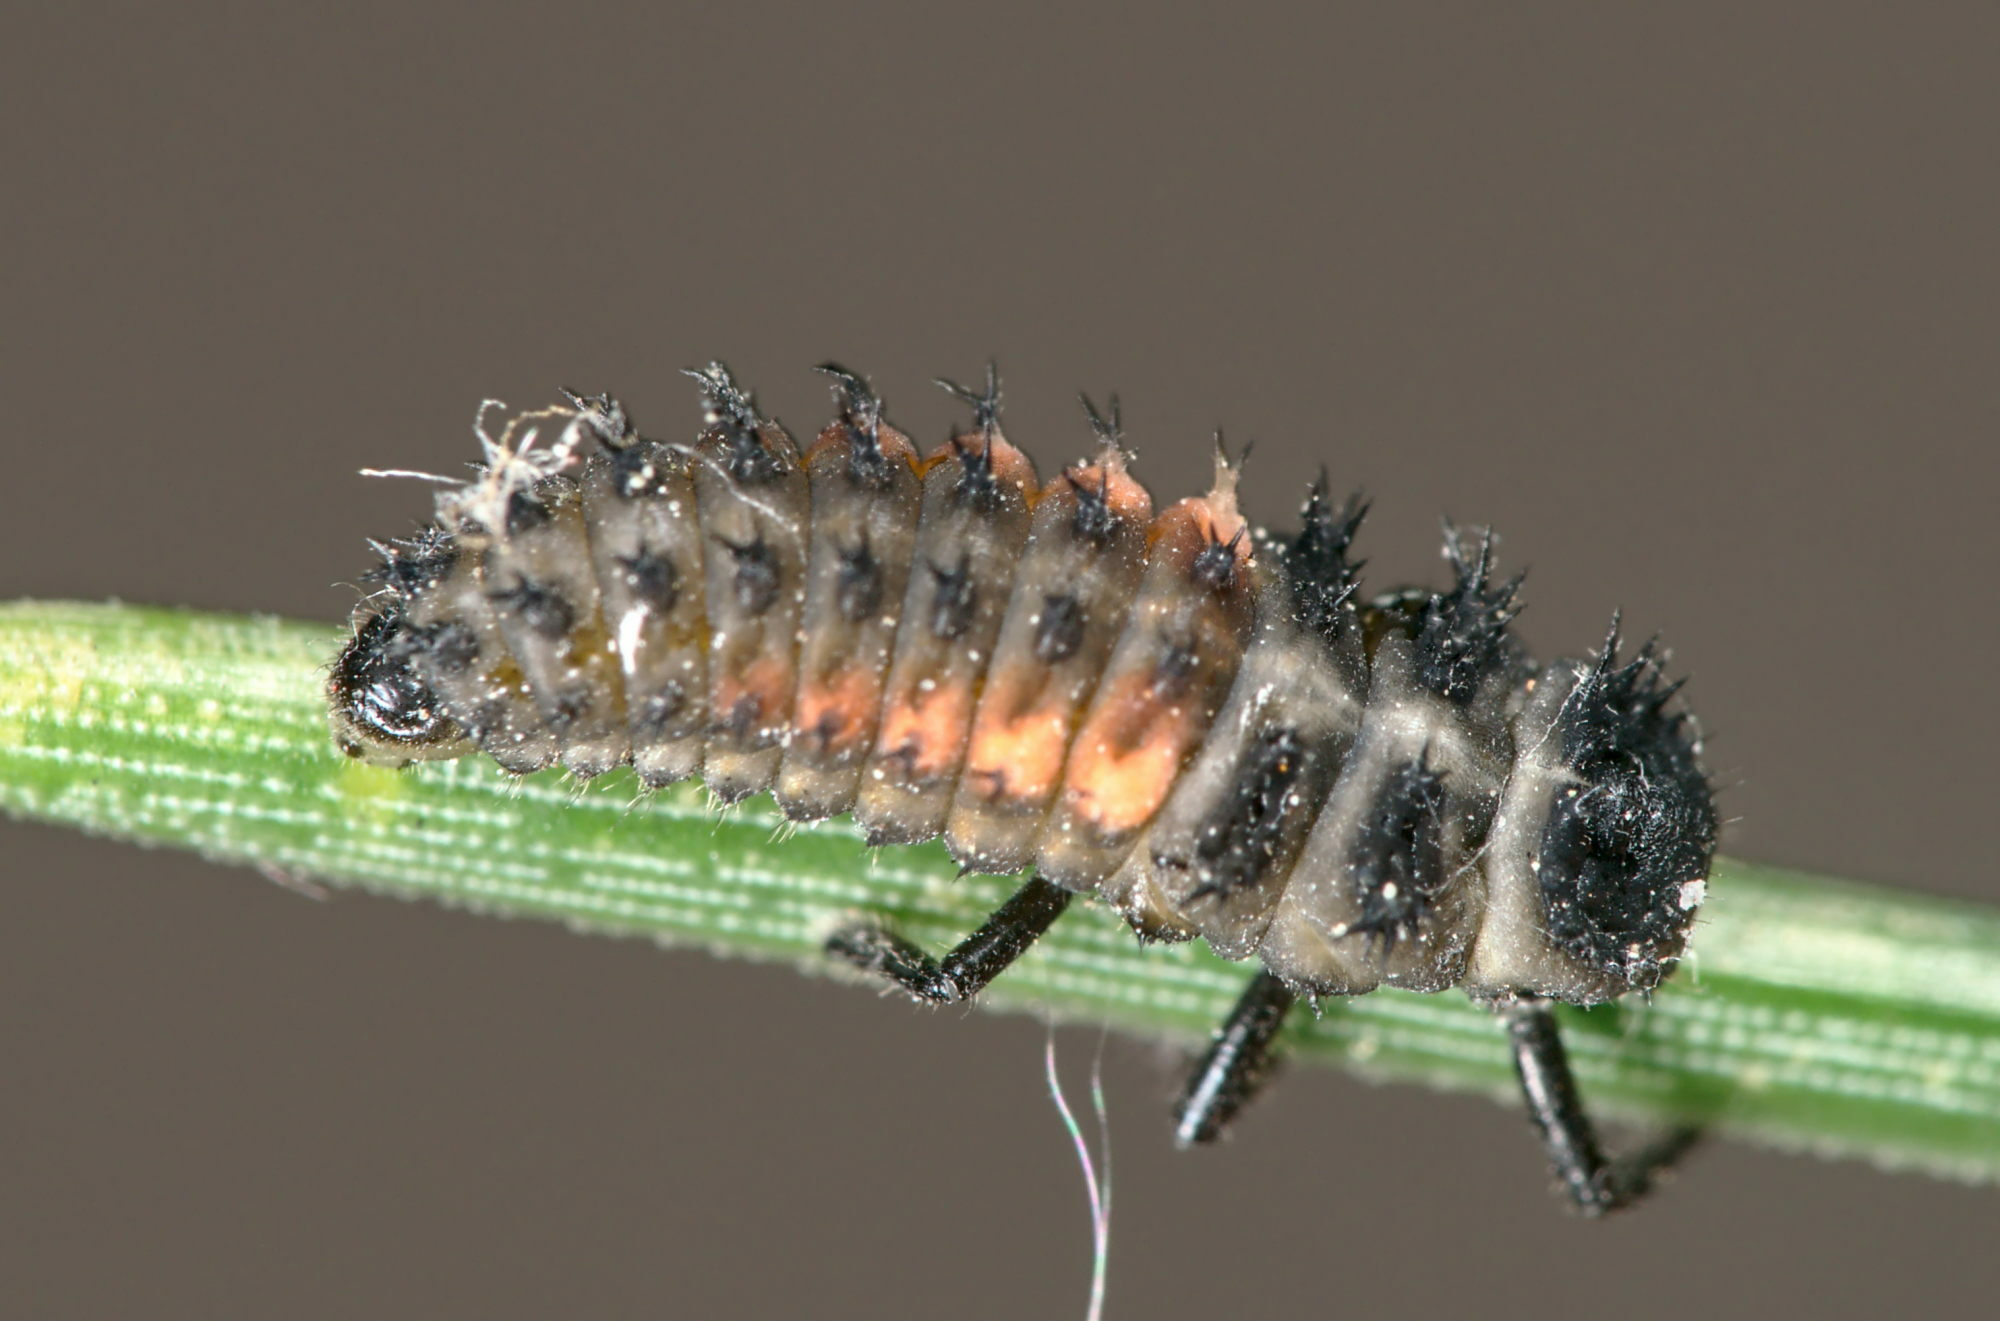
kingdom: Animalia
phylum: Arthropoda
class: Insecta
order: Coleoptera
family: Coccinellidae
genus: Harmonia
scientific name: Harmonia axyridis
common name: Harlequin ladybird
